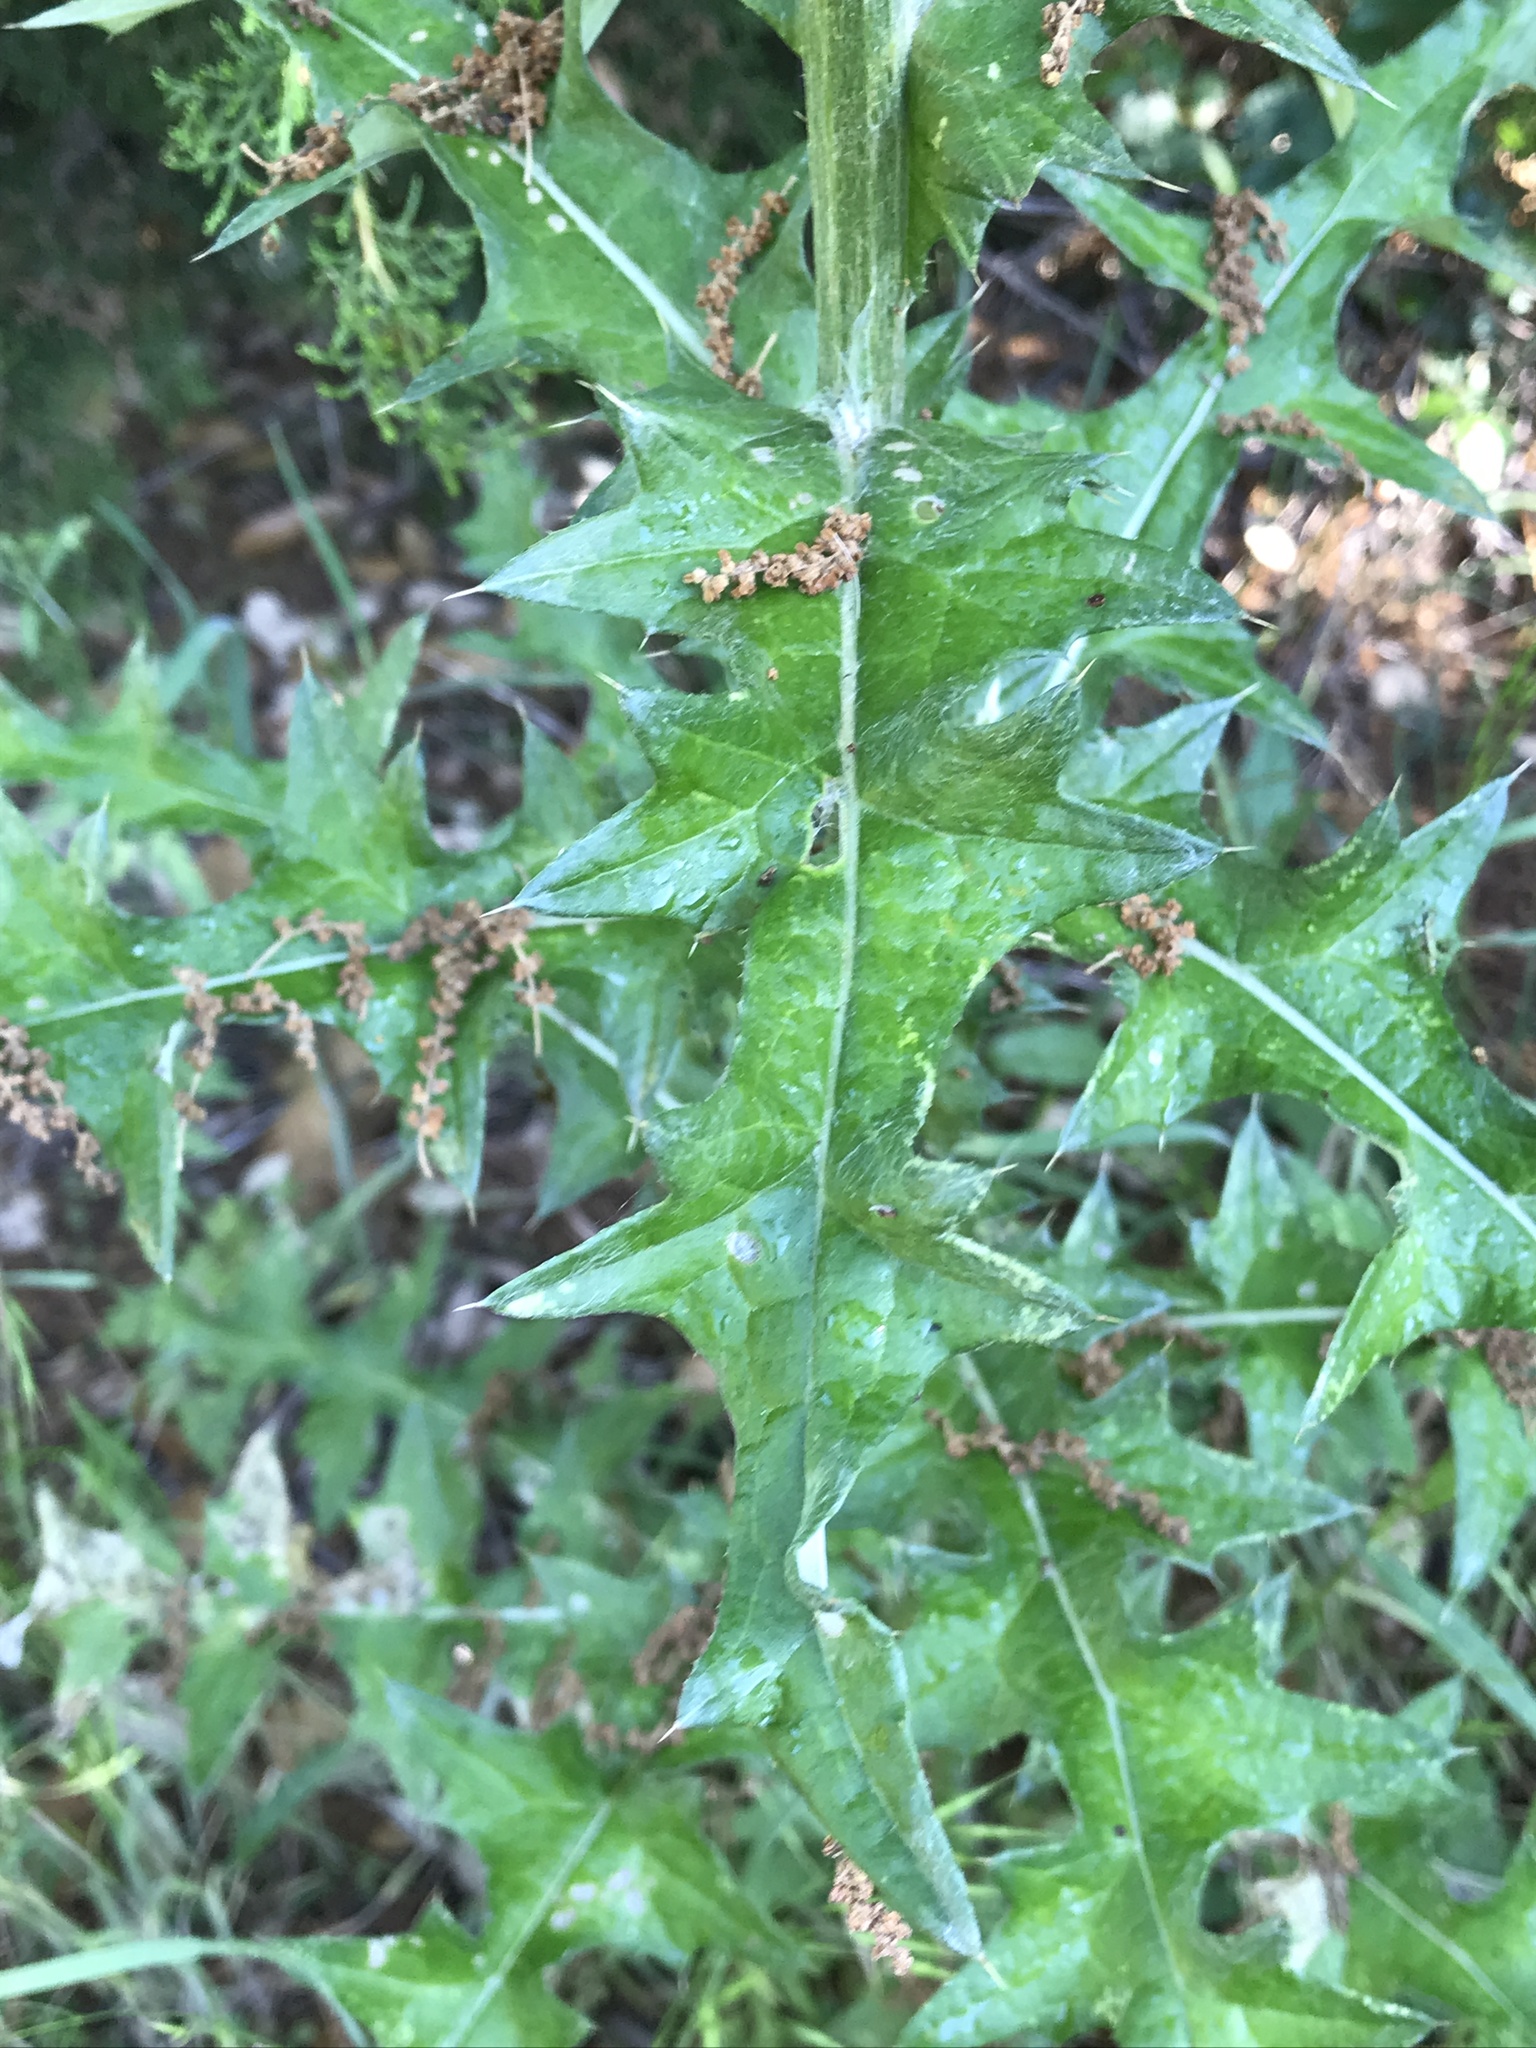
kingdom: Plantae
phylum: Tracheophyta
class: Magnoliopsida
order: Asterales
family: Asteraceae
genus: Cirsium
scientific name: Cirsium texanum
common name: Texas purple thistle
